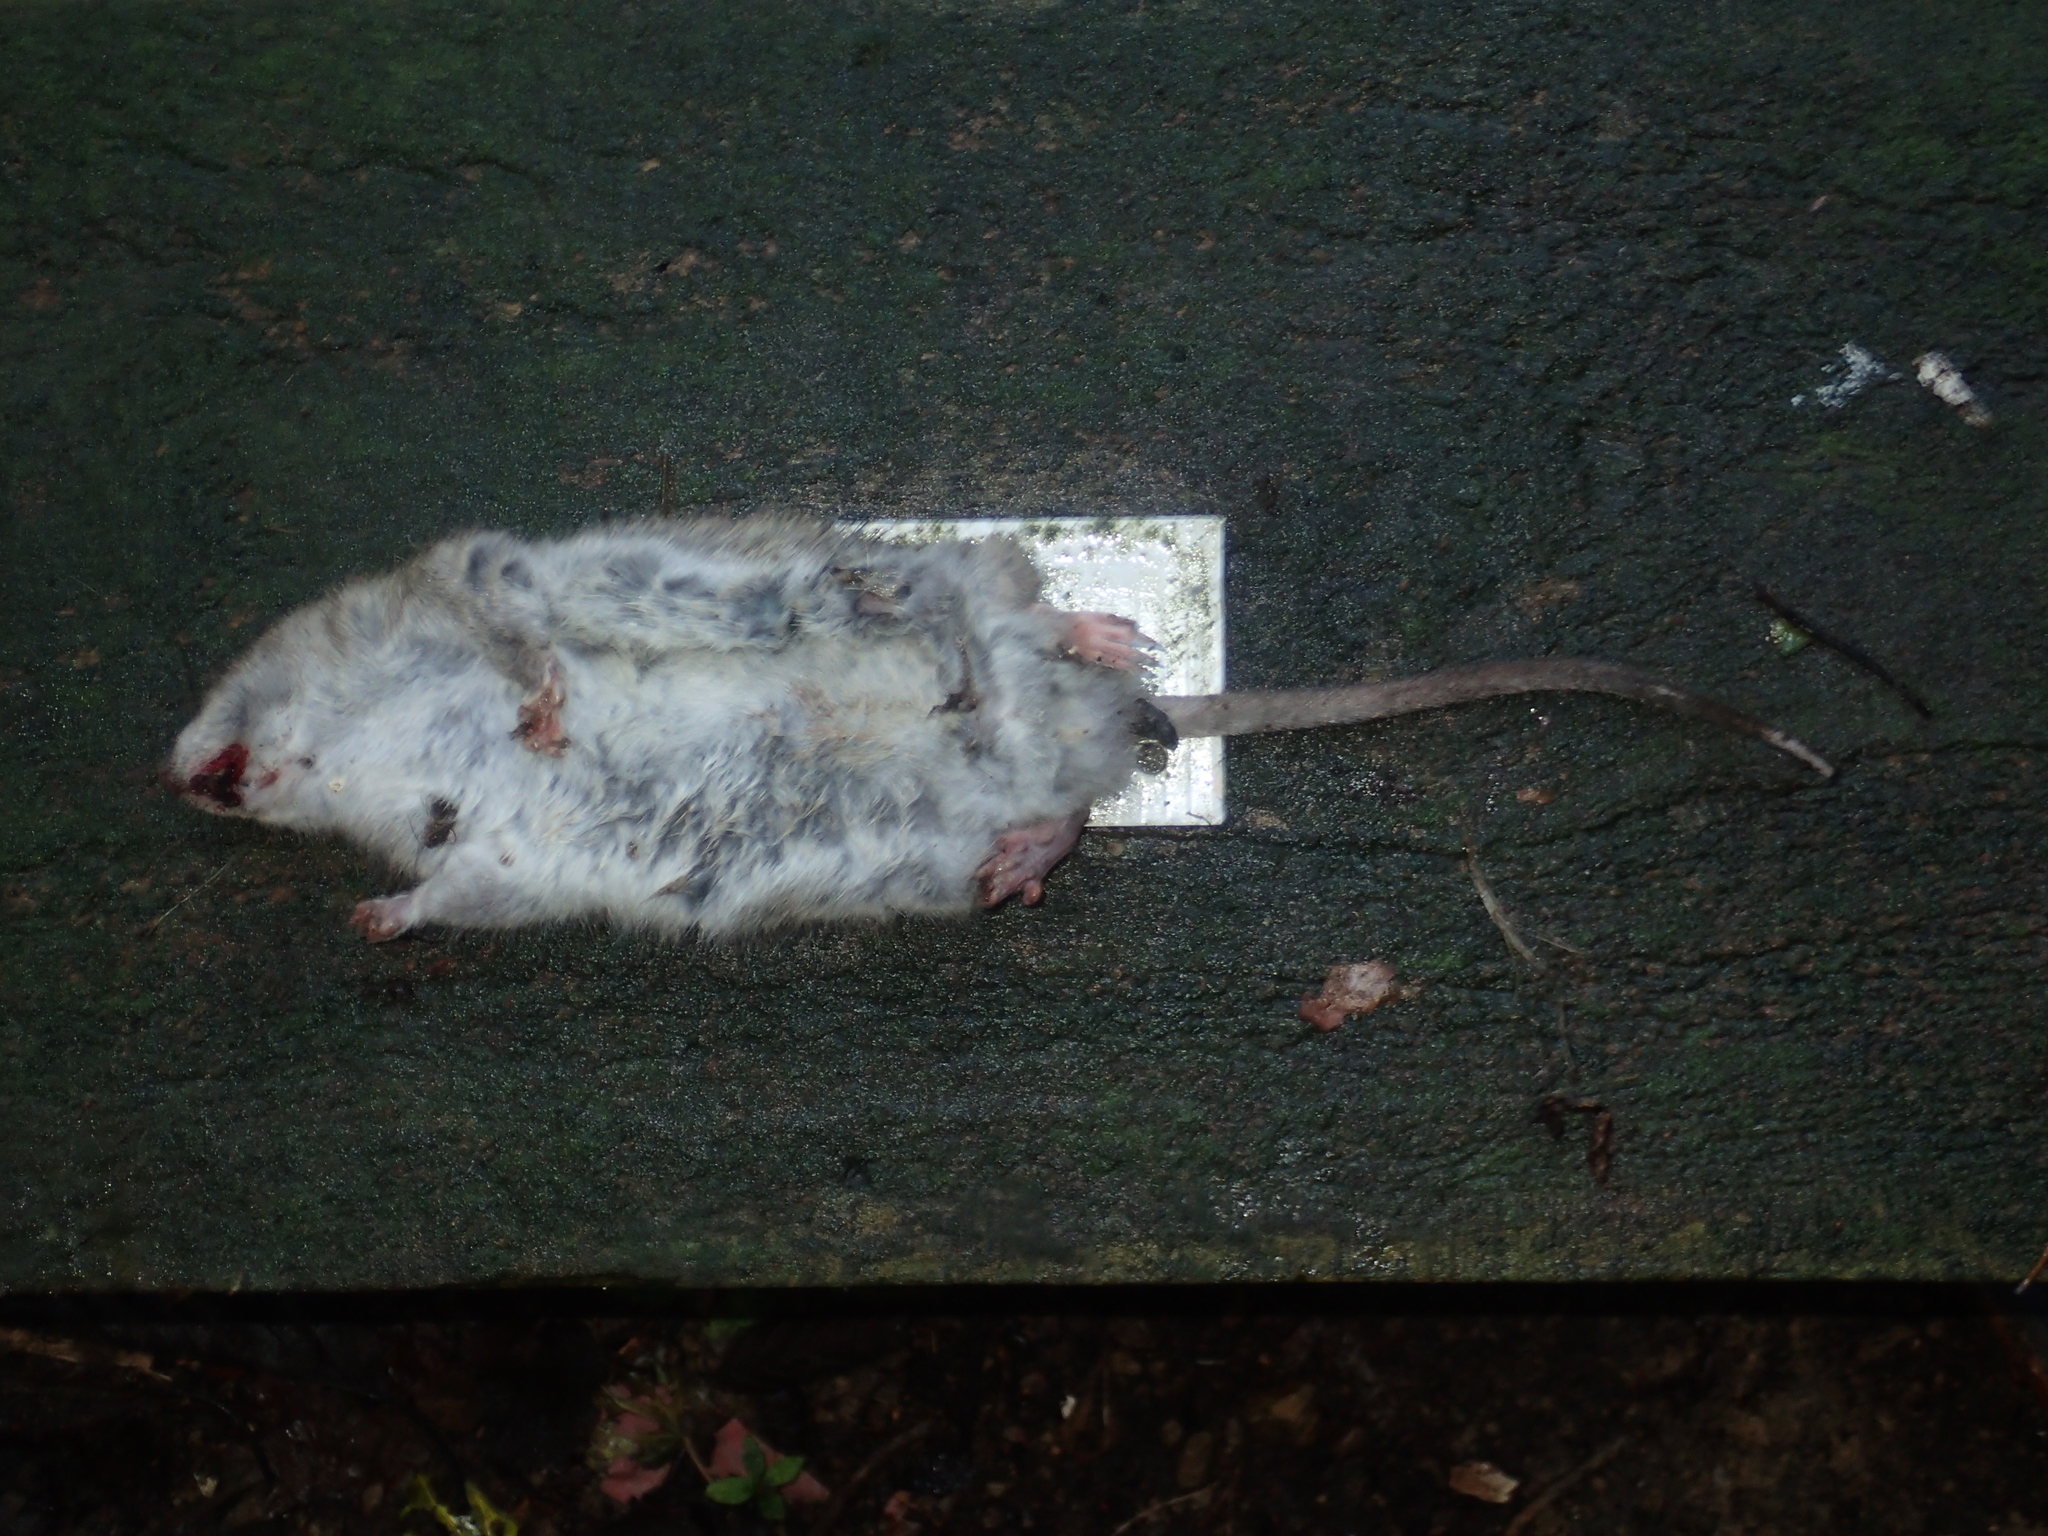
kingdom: Animalia
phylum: Chordata
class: Mammalia
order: Rodentia
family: Muridae
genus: Rattus
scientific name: Rattus norvegicus
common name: Brown rat
